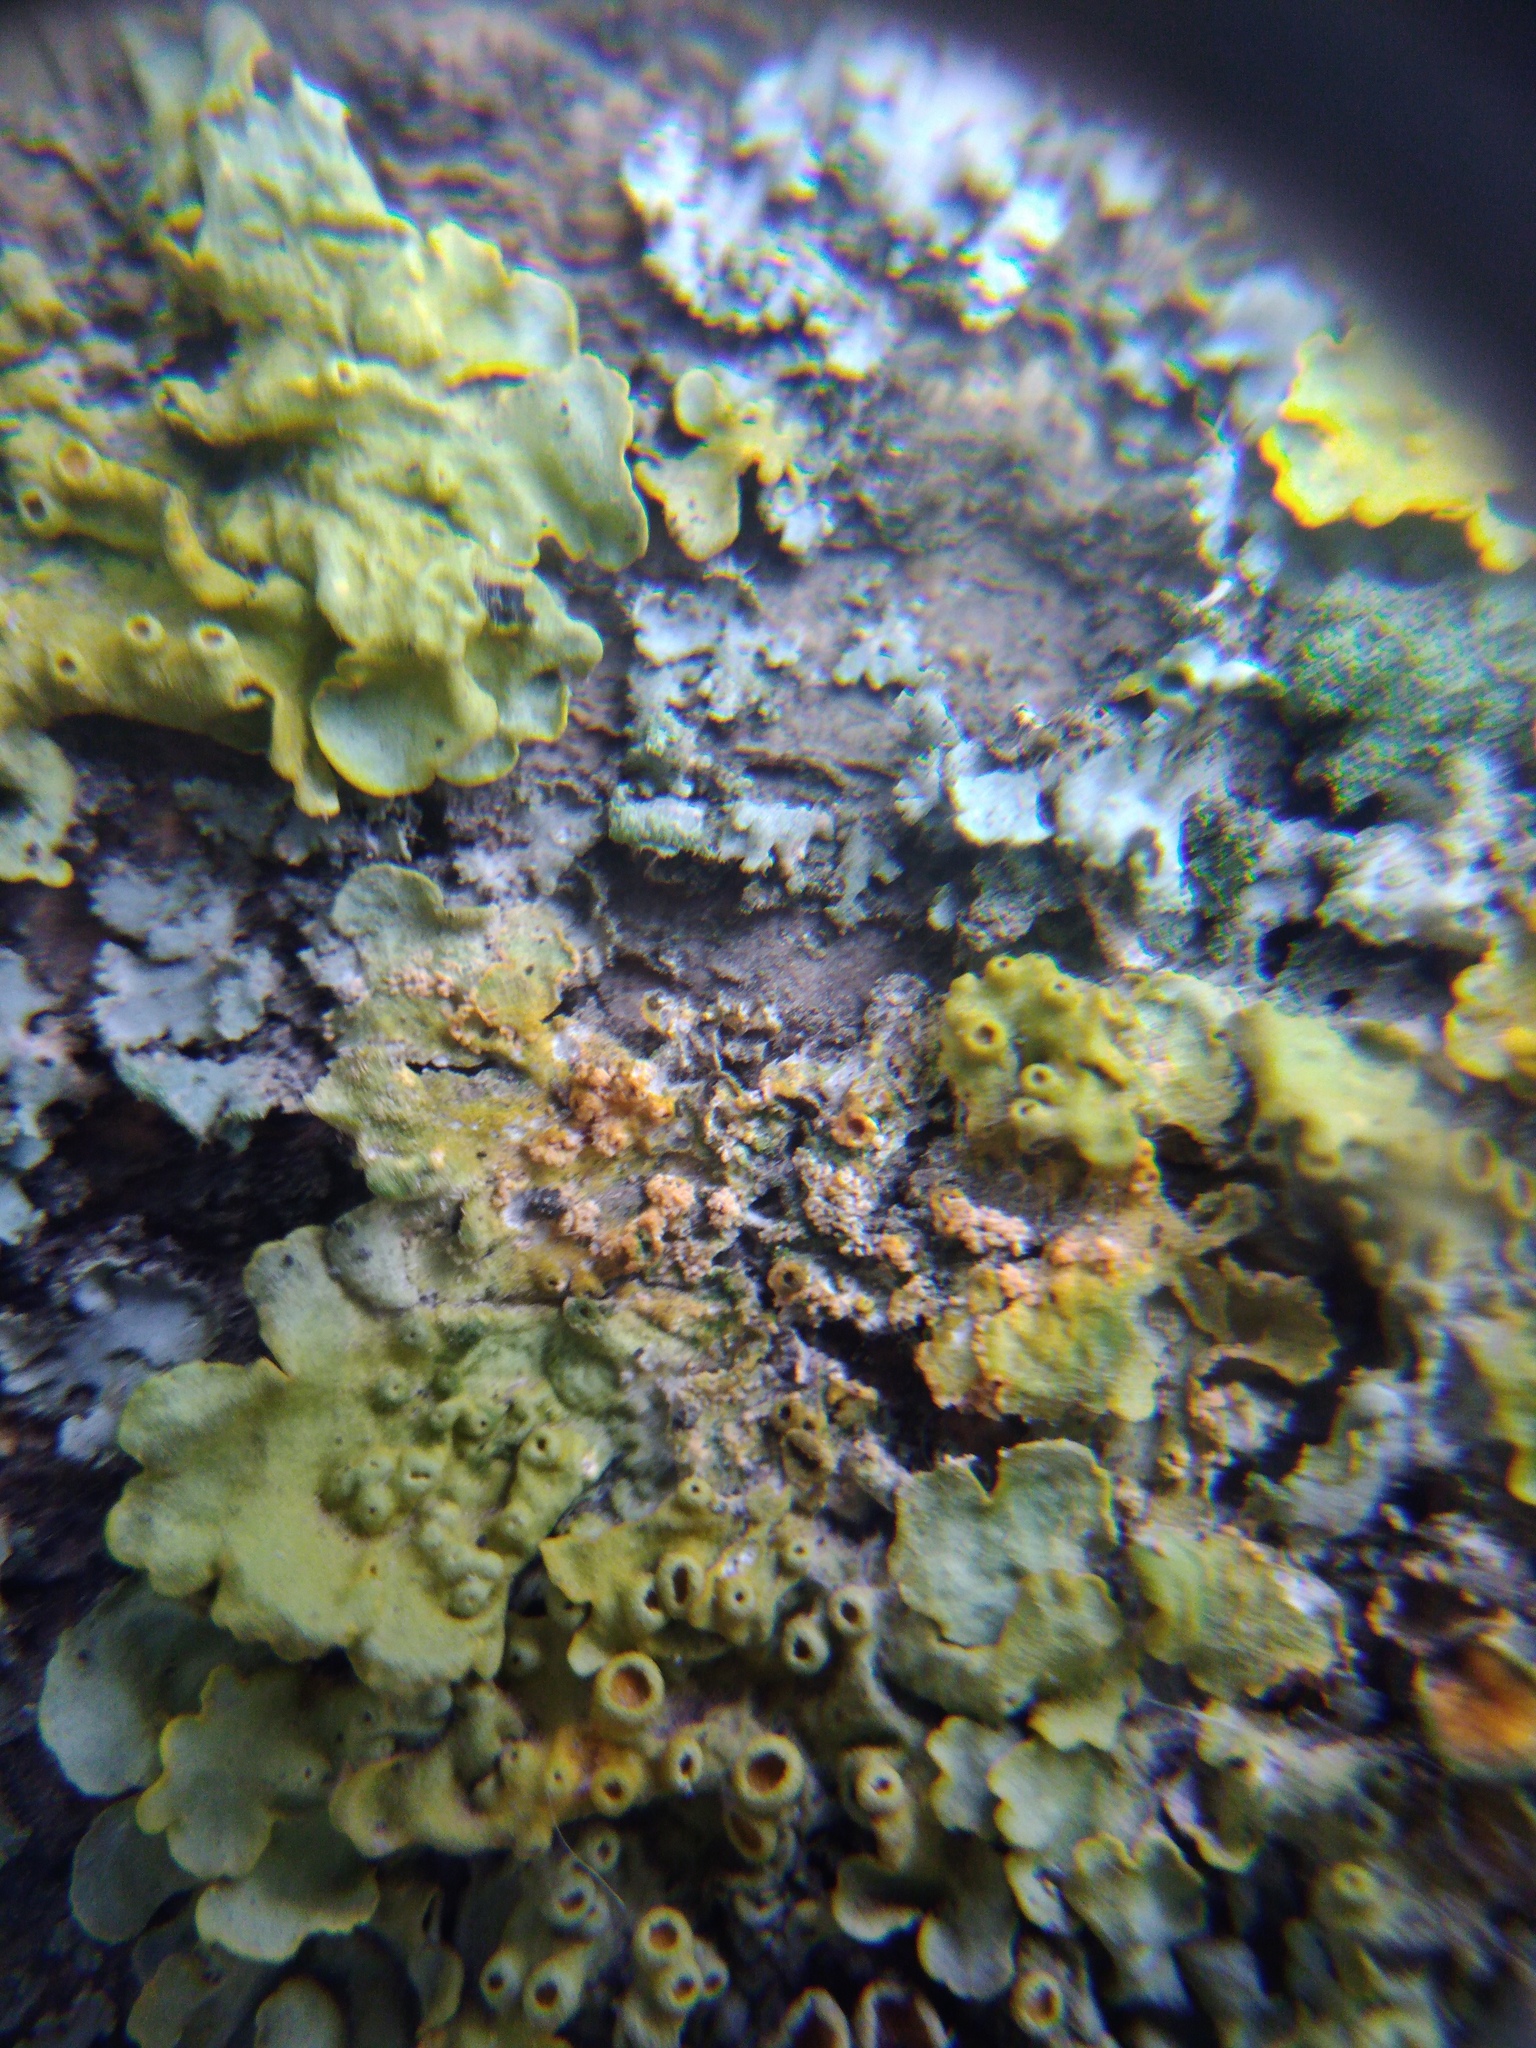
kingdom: Fungi
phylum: Basidiomycota
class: Agaricomycetes
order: Corticiales
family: Corticiaceae
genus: Erythricium
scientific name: Erythricium aurantiacum
